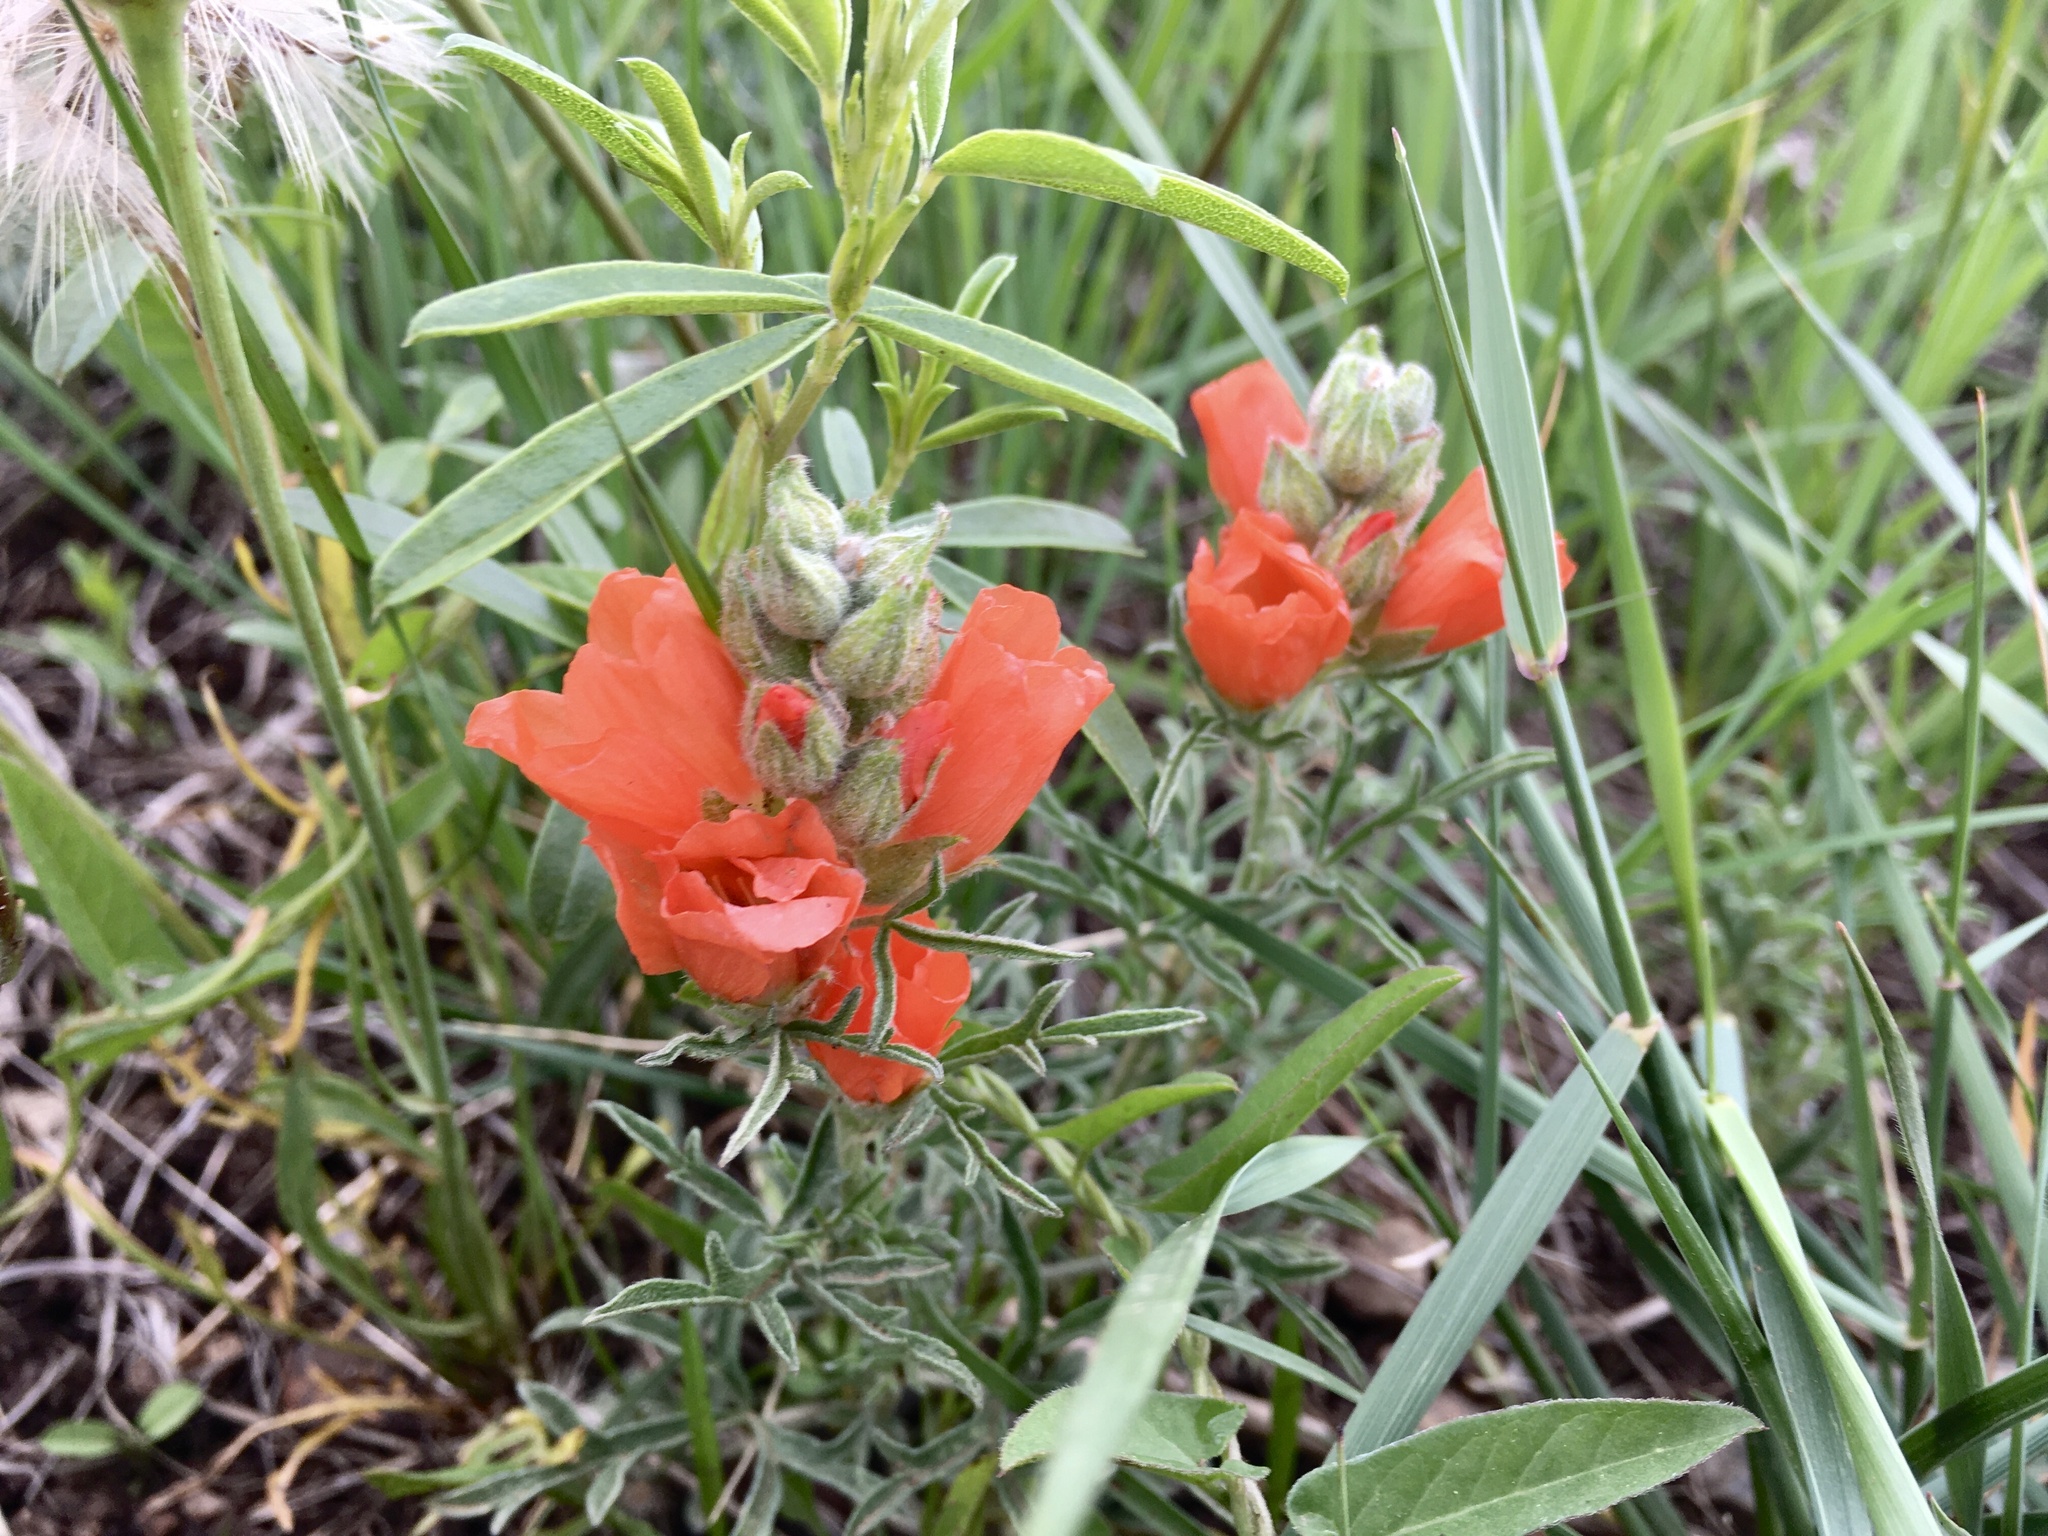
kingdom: Plantae
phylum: Tracheophyta
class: Magnoliopsida
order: Malvales
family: Malvaceae
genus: Sphaeralcea
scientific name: Sphaeralcea coccinea
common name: Moss-rose
